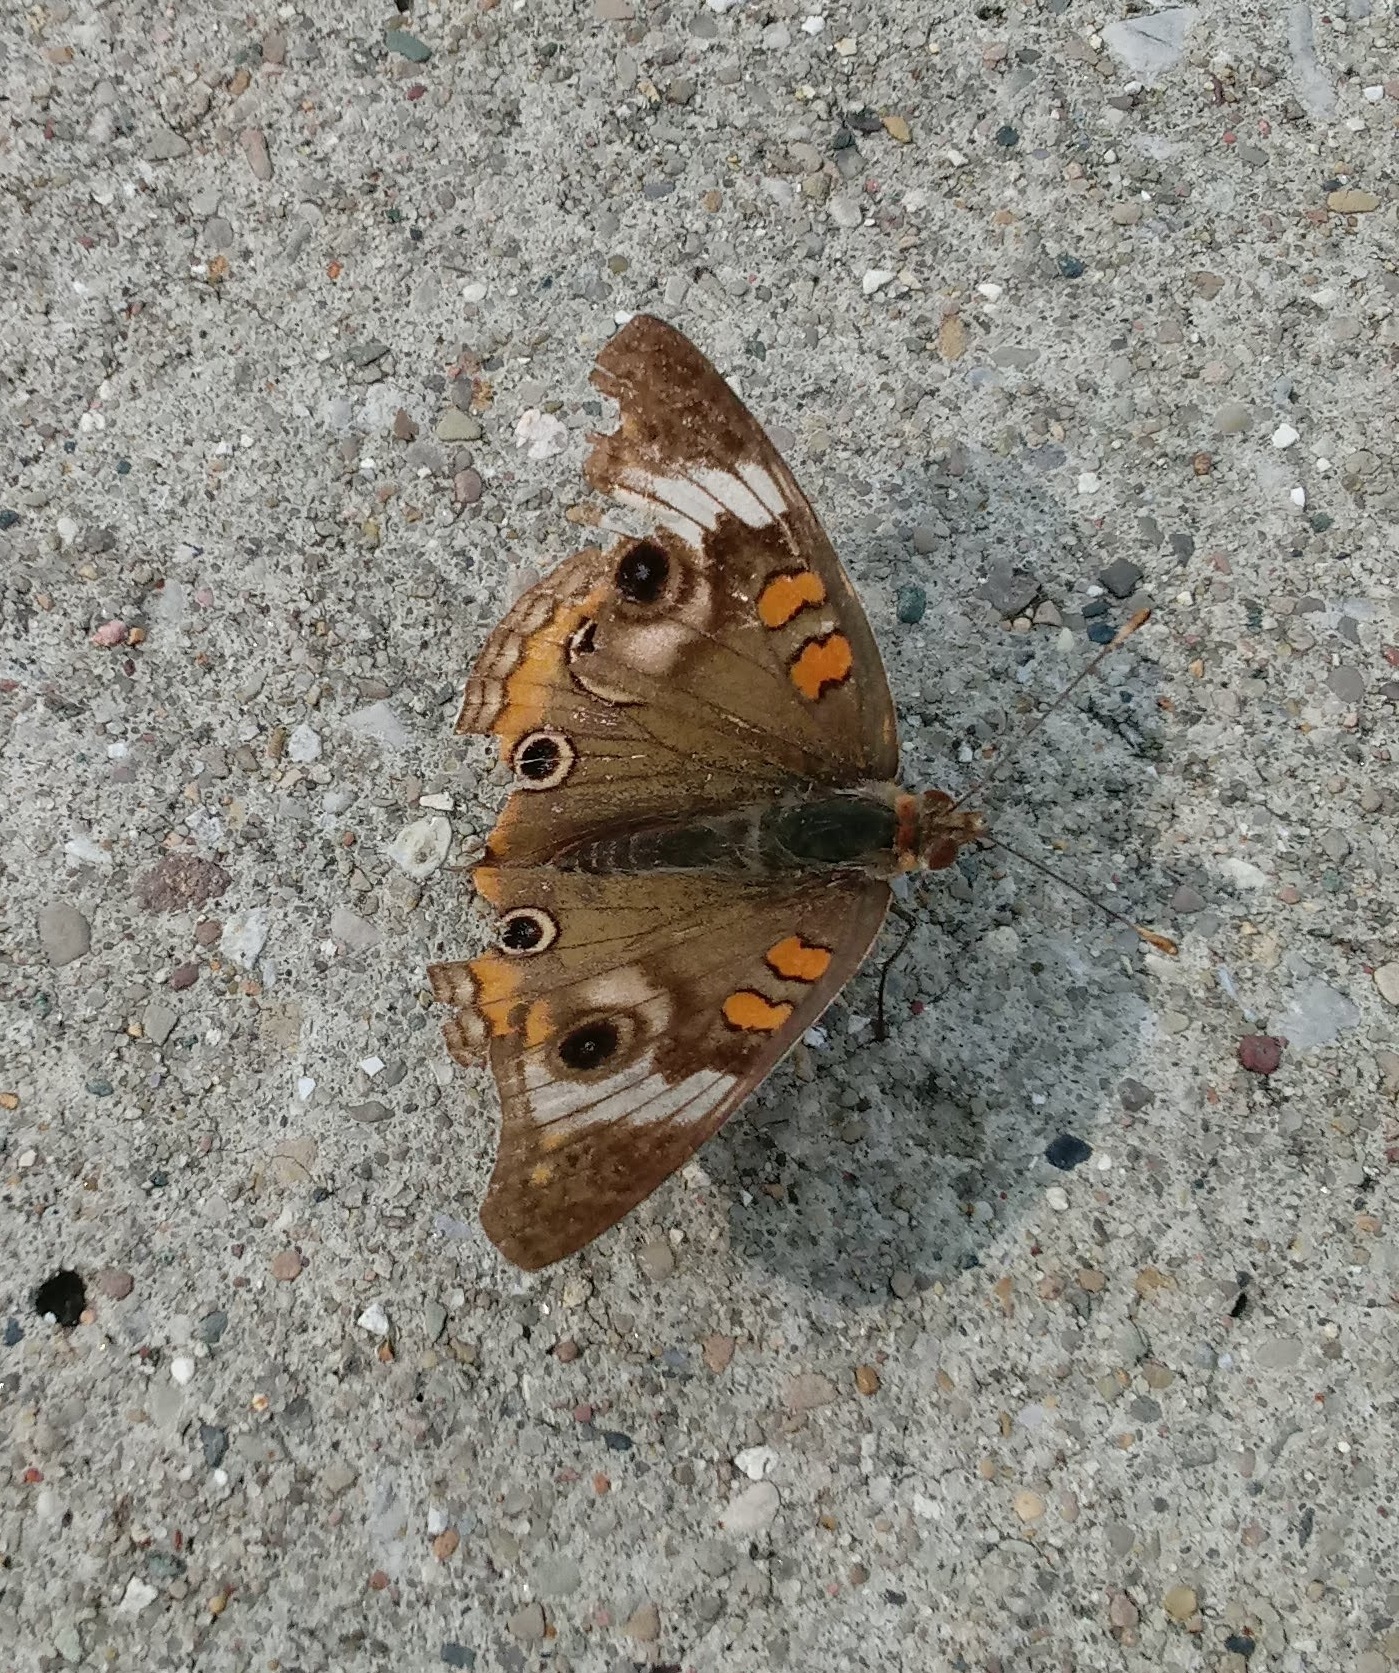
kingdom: Animalia
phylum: Arthropoda
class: Insecta
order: Lepidoptera
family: Nymphalidae
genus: Junonia
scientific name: Junonia coenia
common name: Common buckeye
